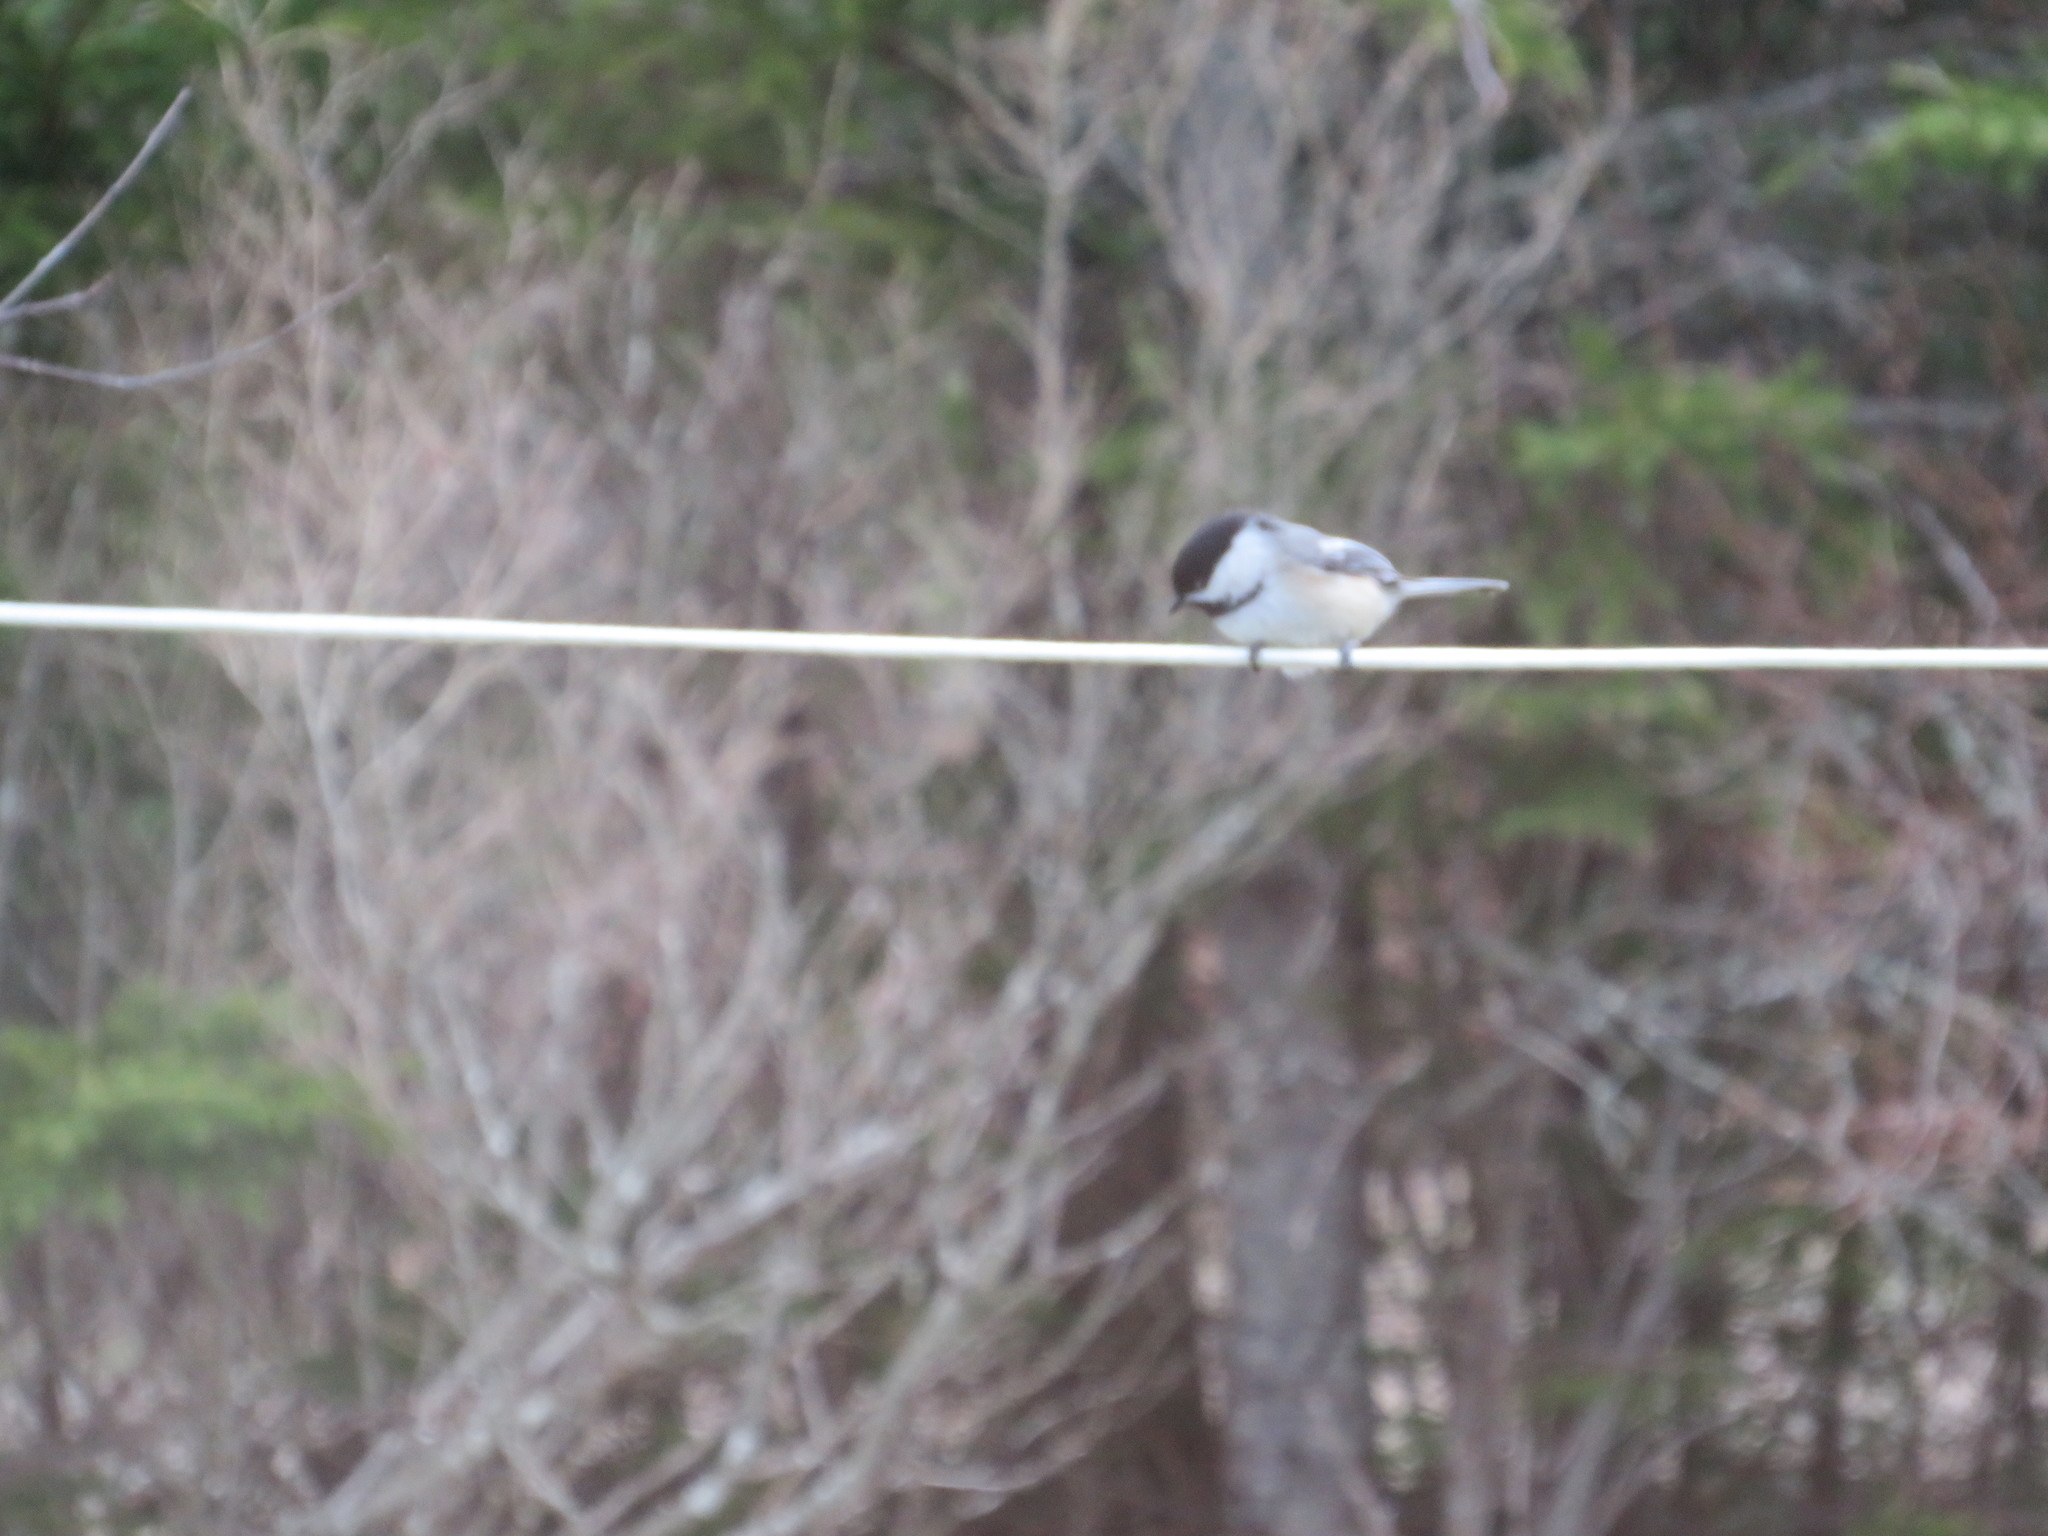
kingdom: Animalia
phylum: Chordata
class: Aves
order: Passeriformes
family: Paridae
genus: Poecile
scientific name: Poecile atricapillus
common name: Black-capped chickadee
